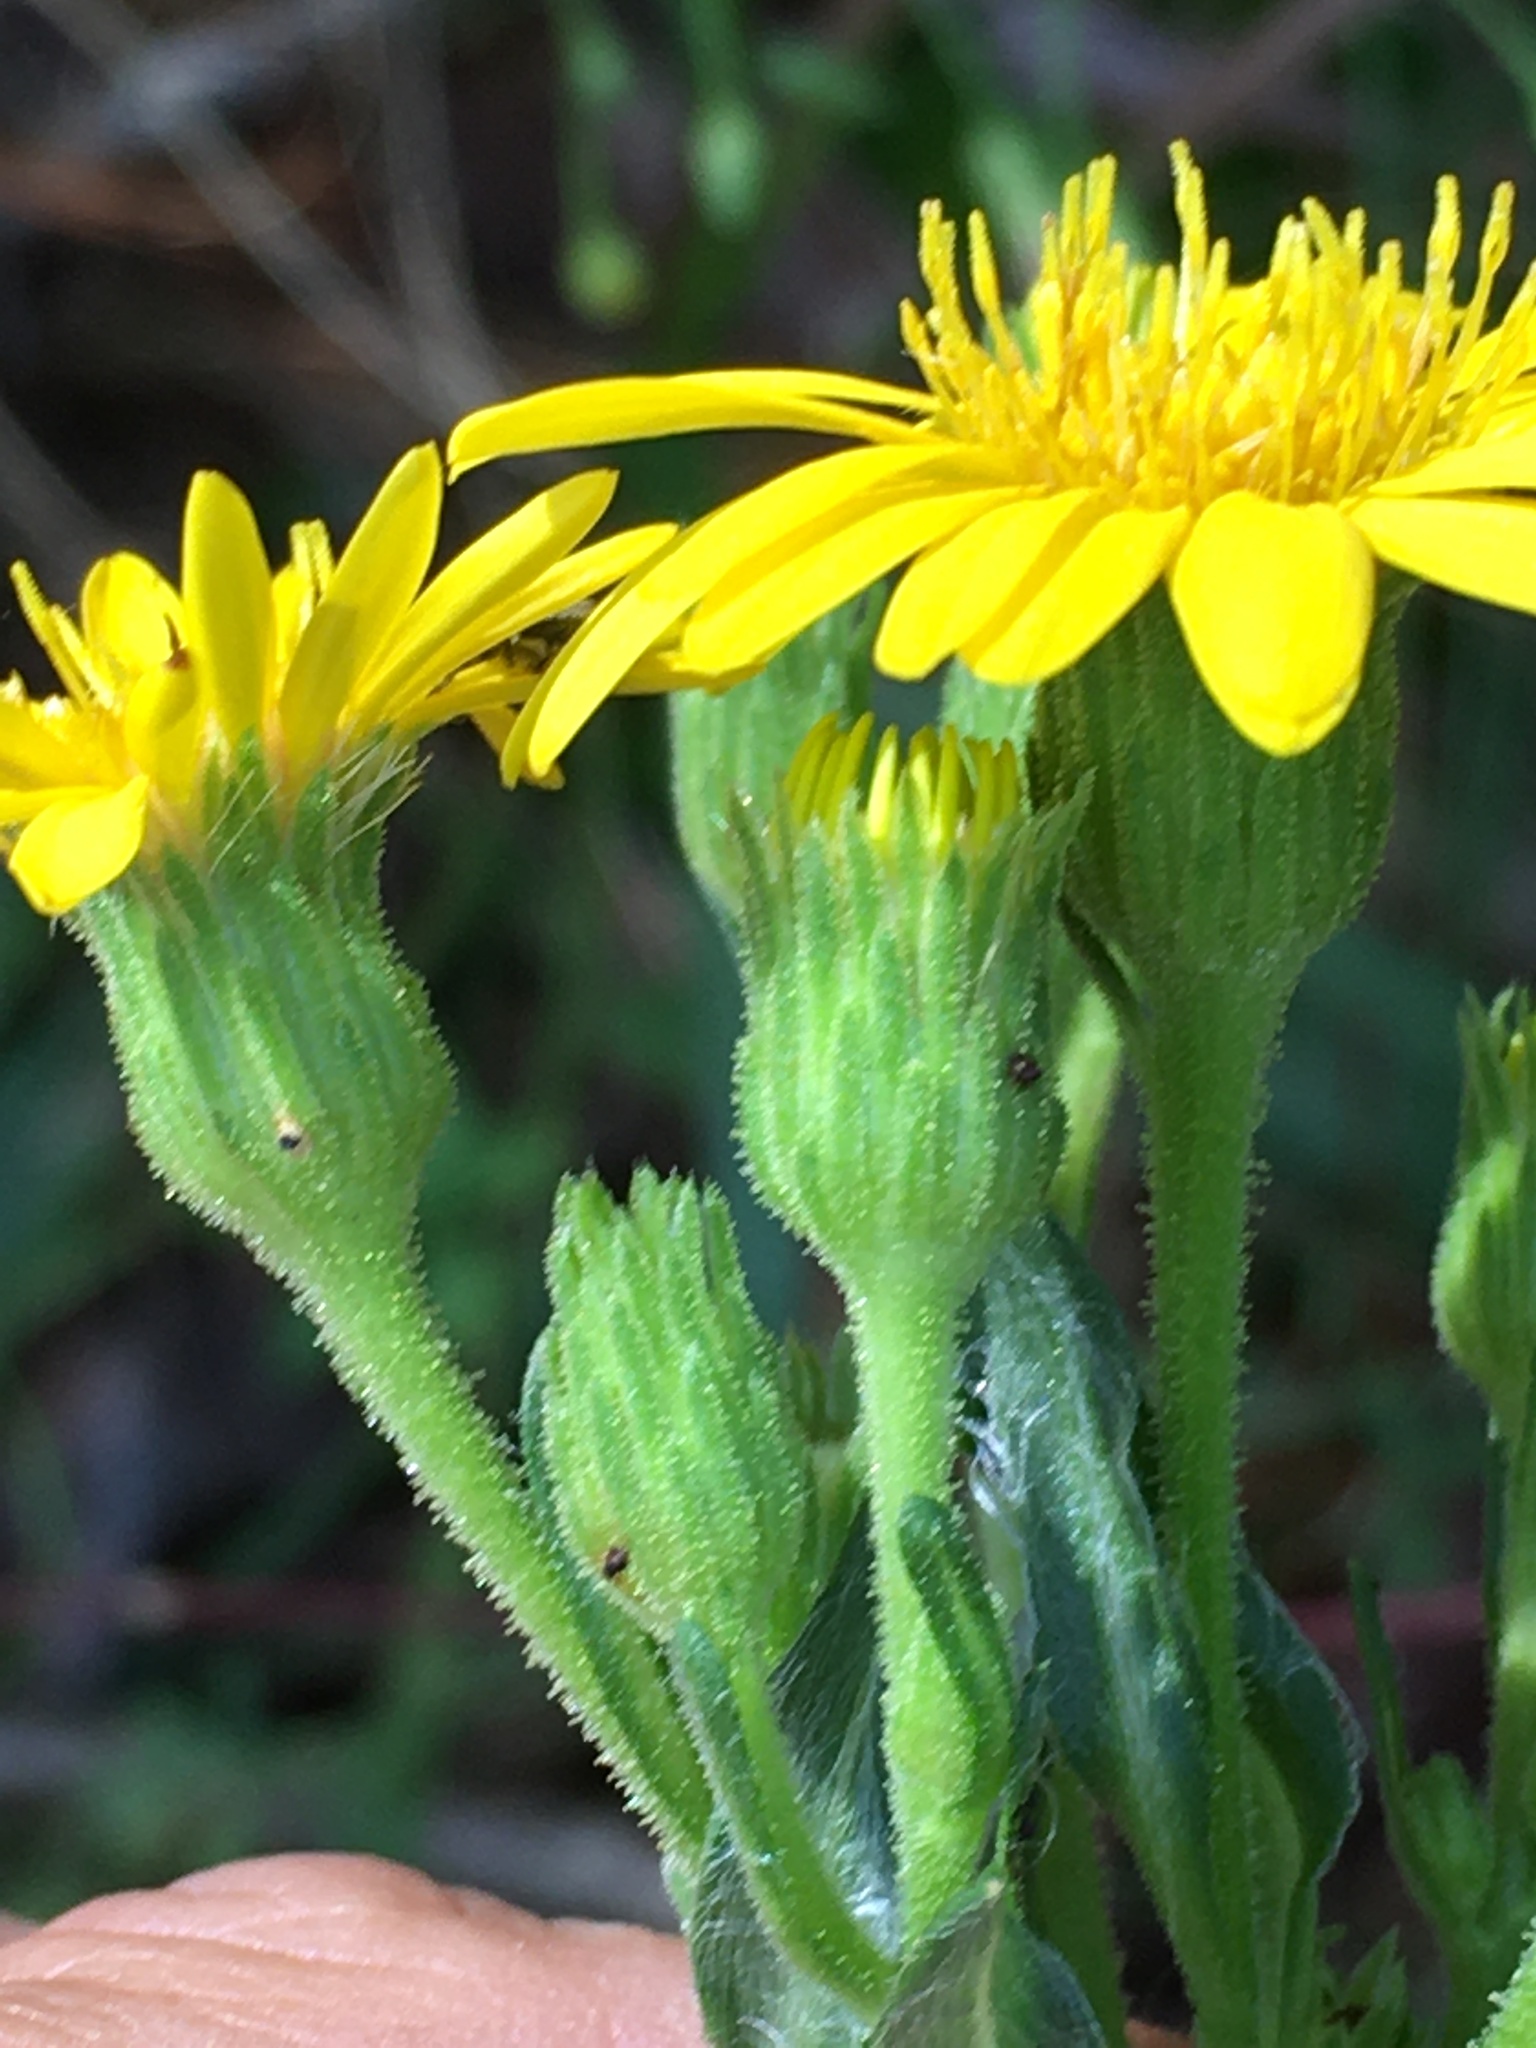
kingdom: Plantae
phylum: Tracheophyta
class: Magnoliopsida
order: Asterales
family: Asteraceae
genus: Chrysopsis
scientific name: Chrysopsis mariana
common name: Maryland golden-aster
